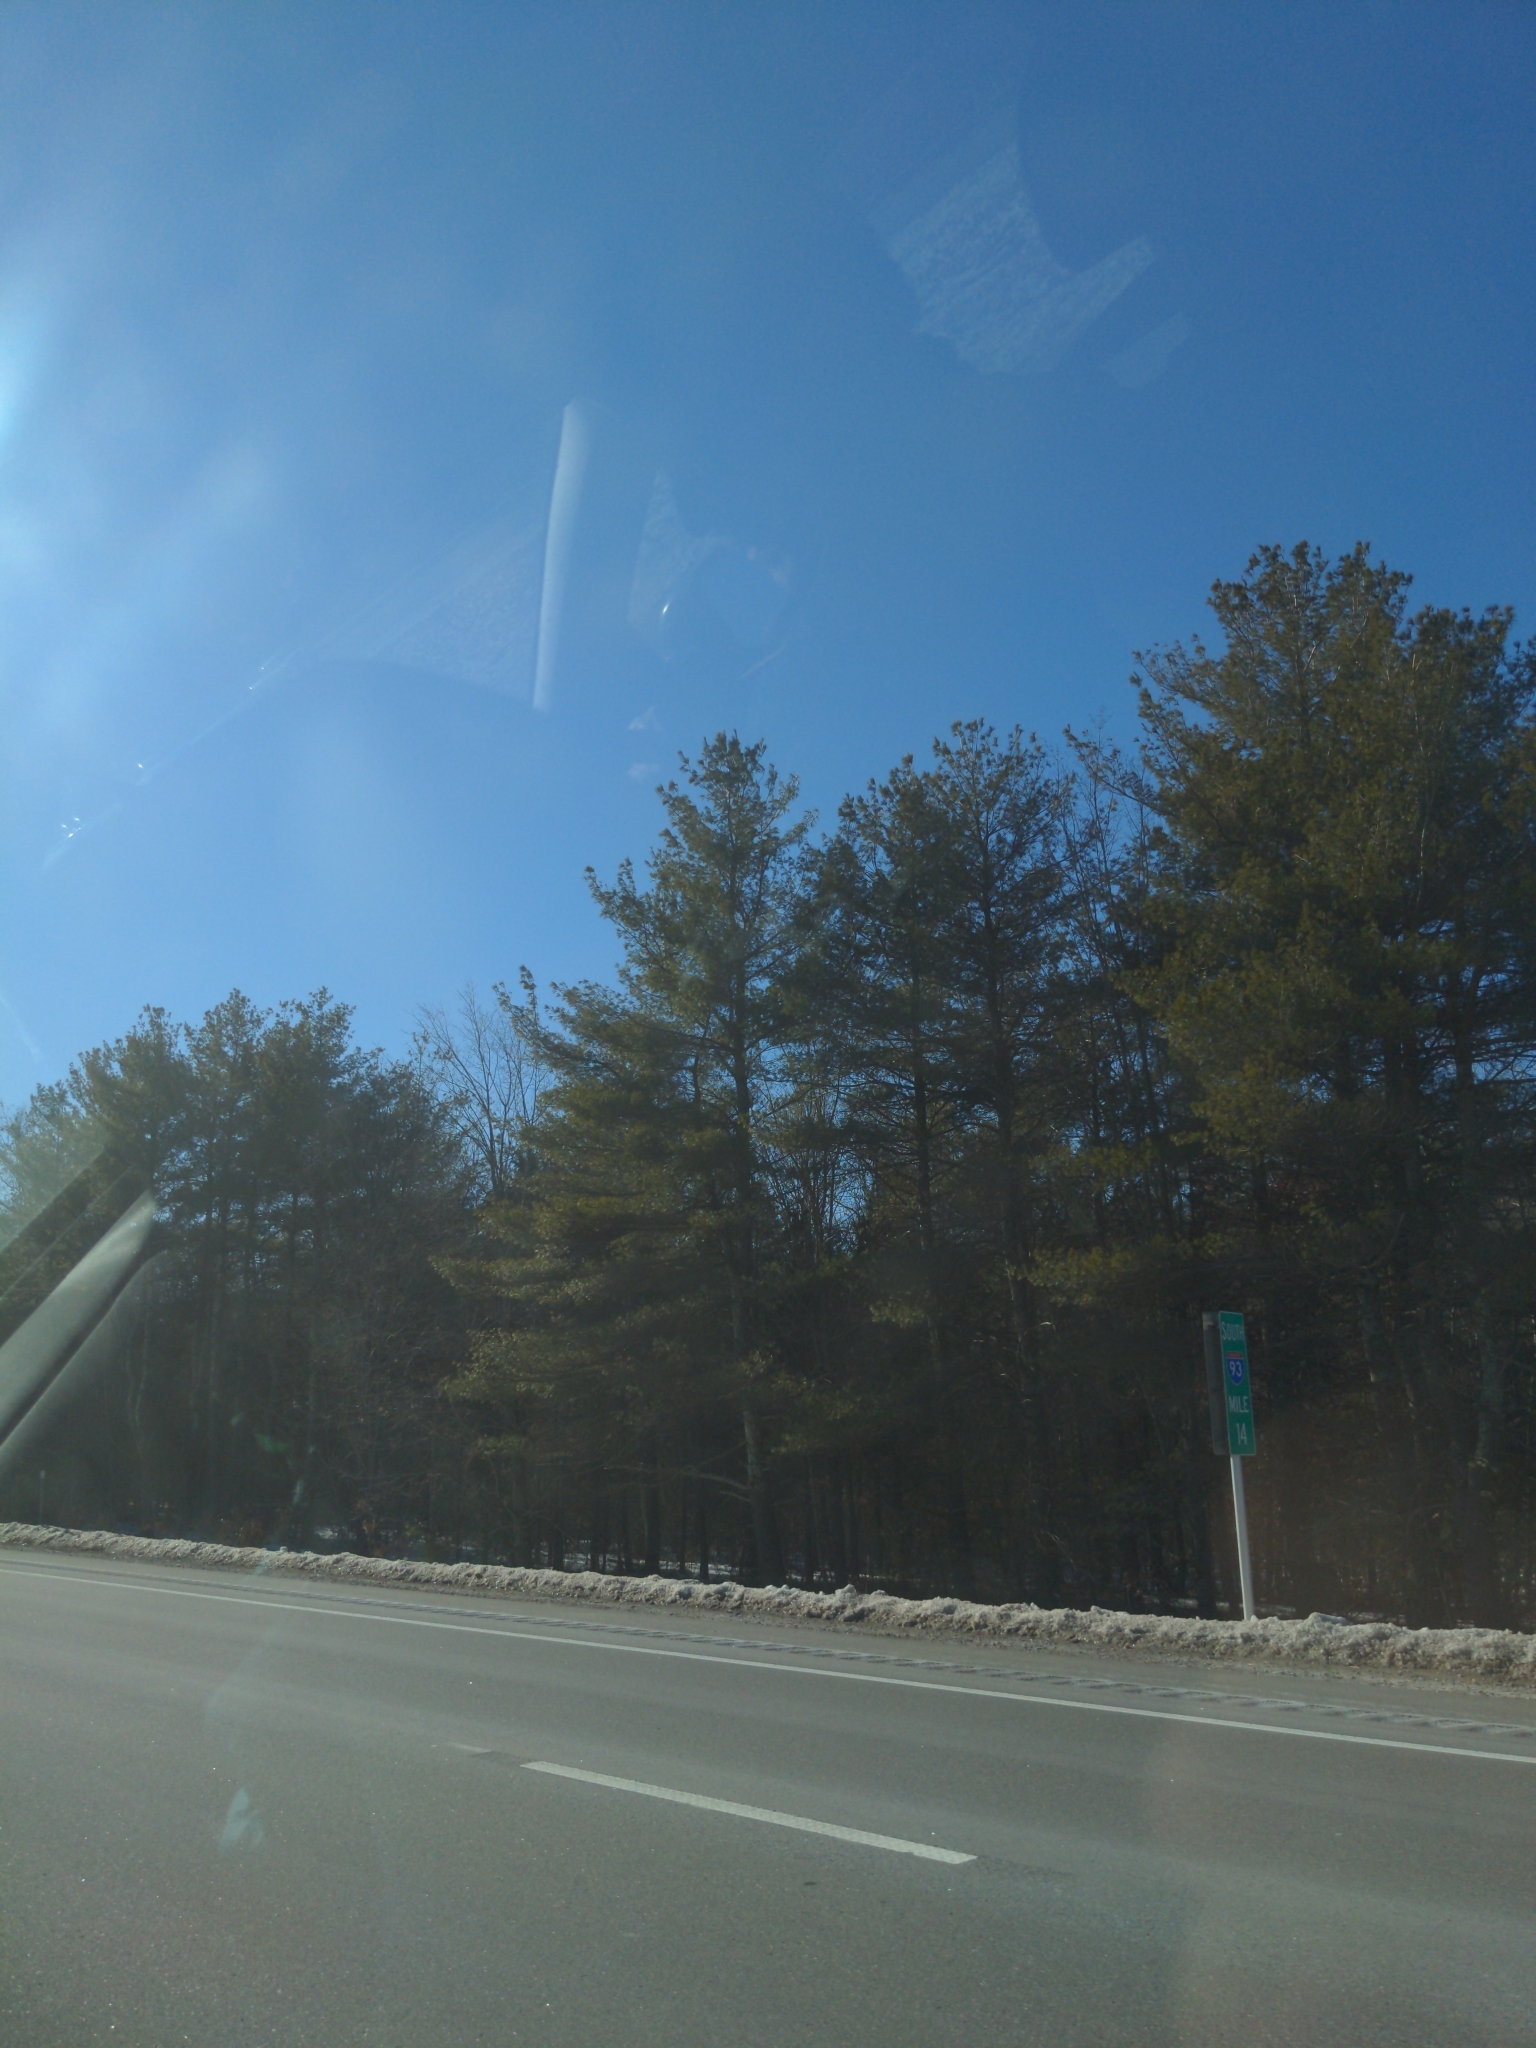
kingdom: Plantae
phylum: Tracheophyta
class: Pinopsida
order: Pinales
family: Pinaceae
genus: Pinus
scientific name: Pinus strobus
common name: Weymouth pine
